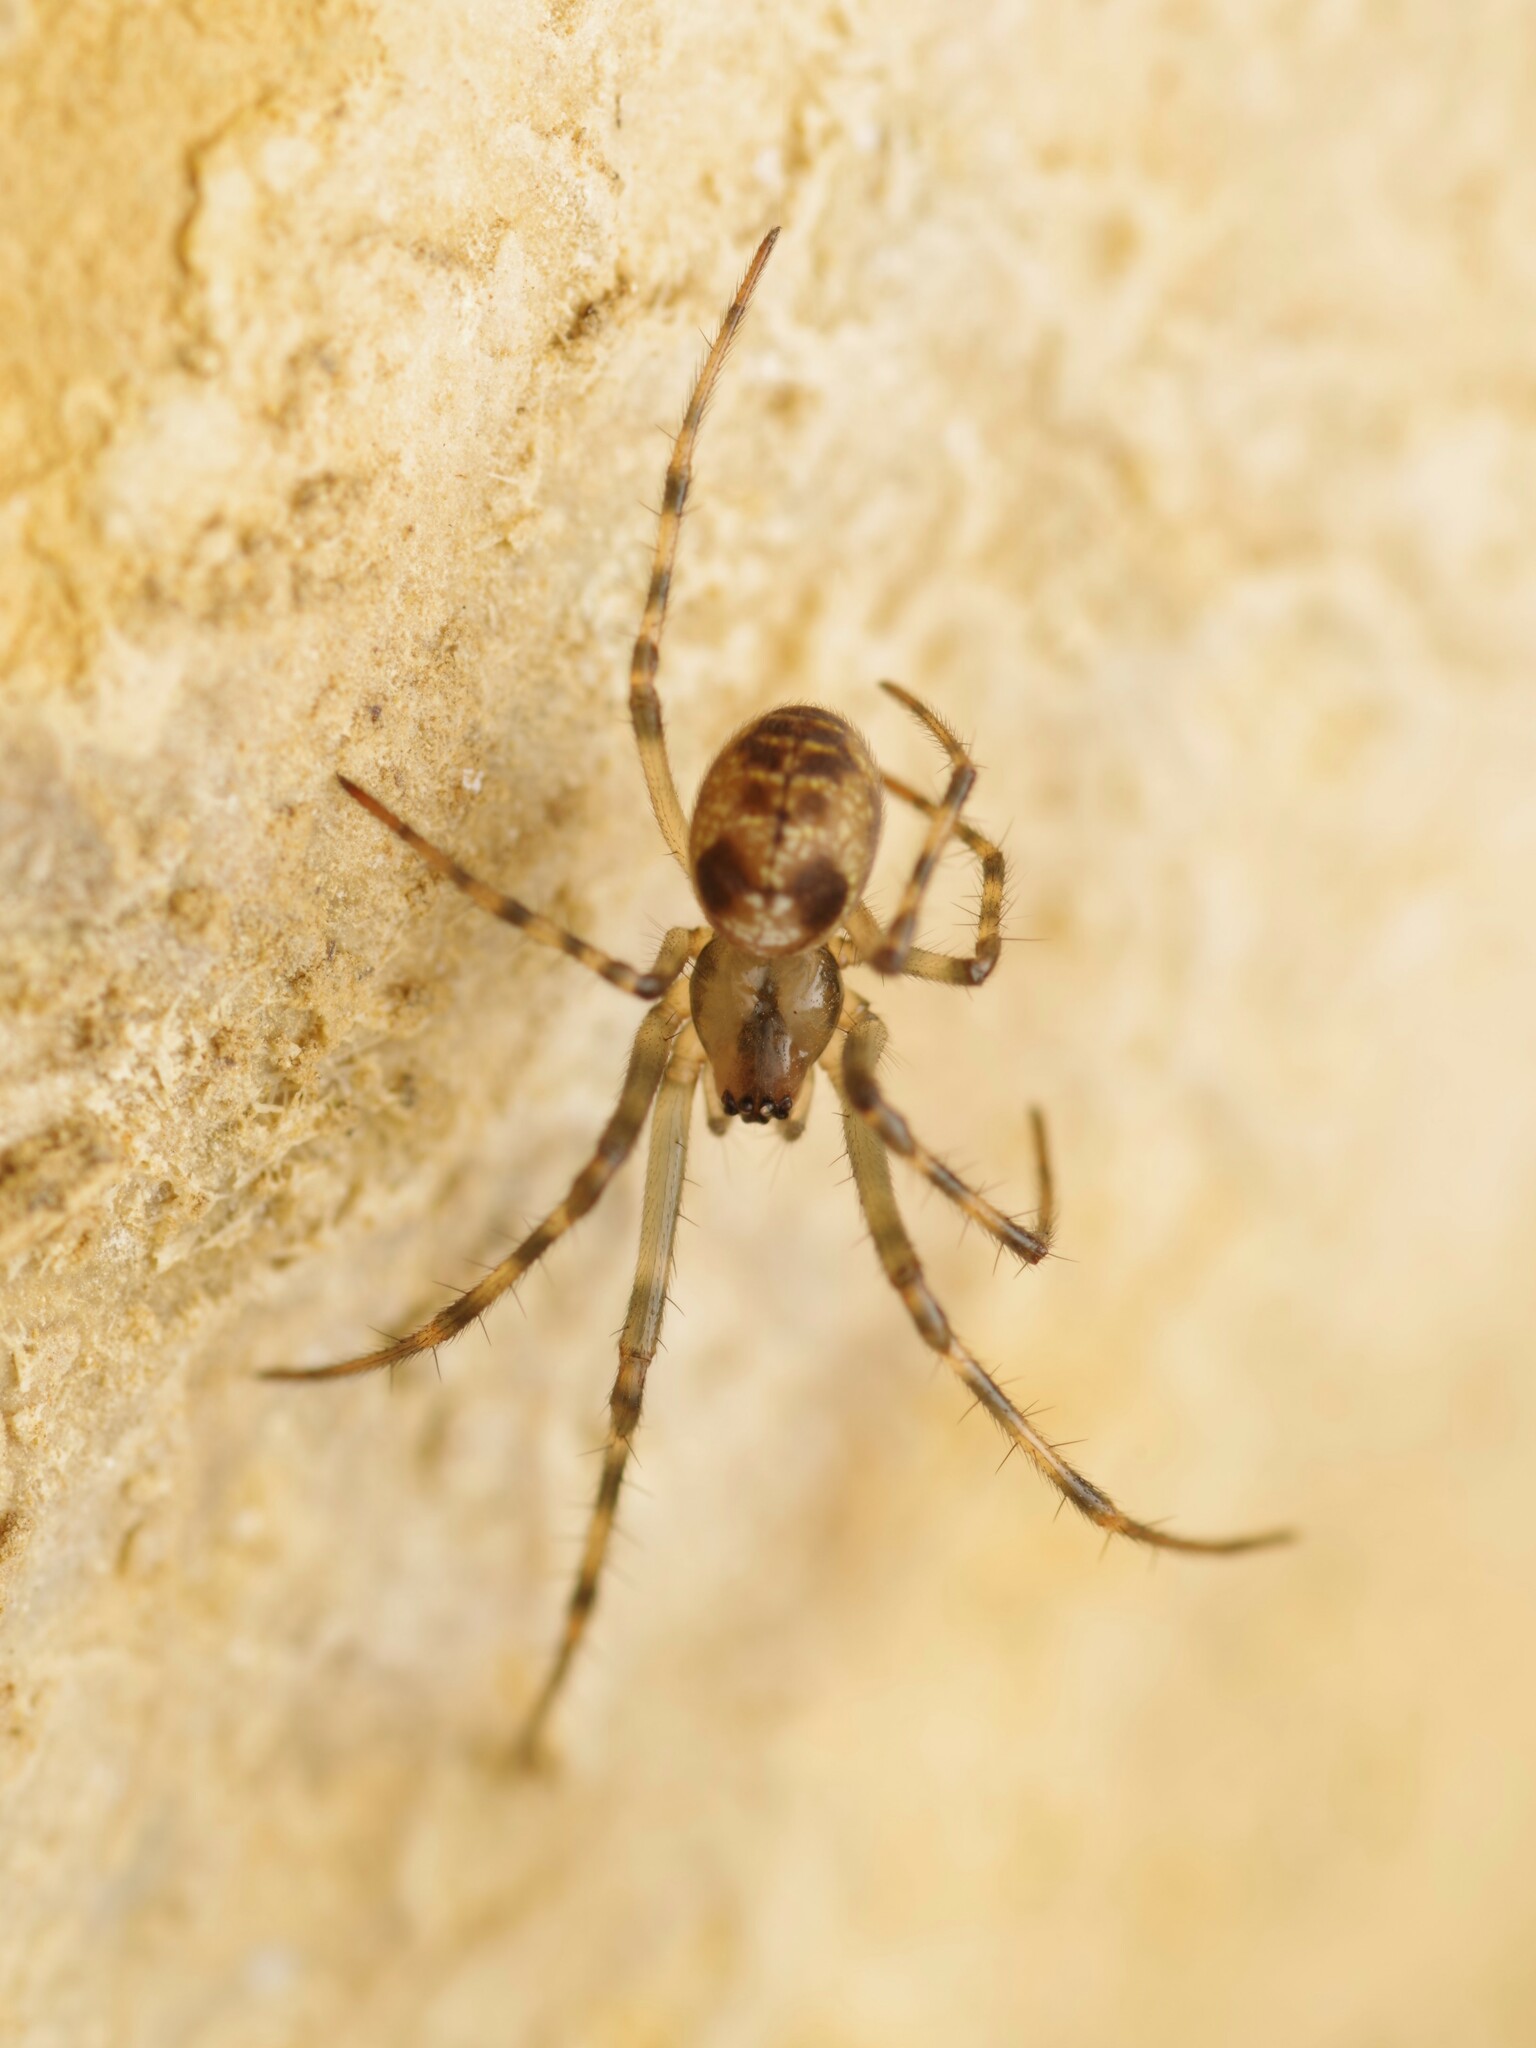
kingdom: Animalia
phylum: Arthropoda
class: Arachnida
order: Araneae
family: Tetragnathidae
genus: Meta
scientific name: Meta menardi
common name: Cave spider
